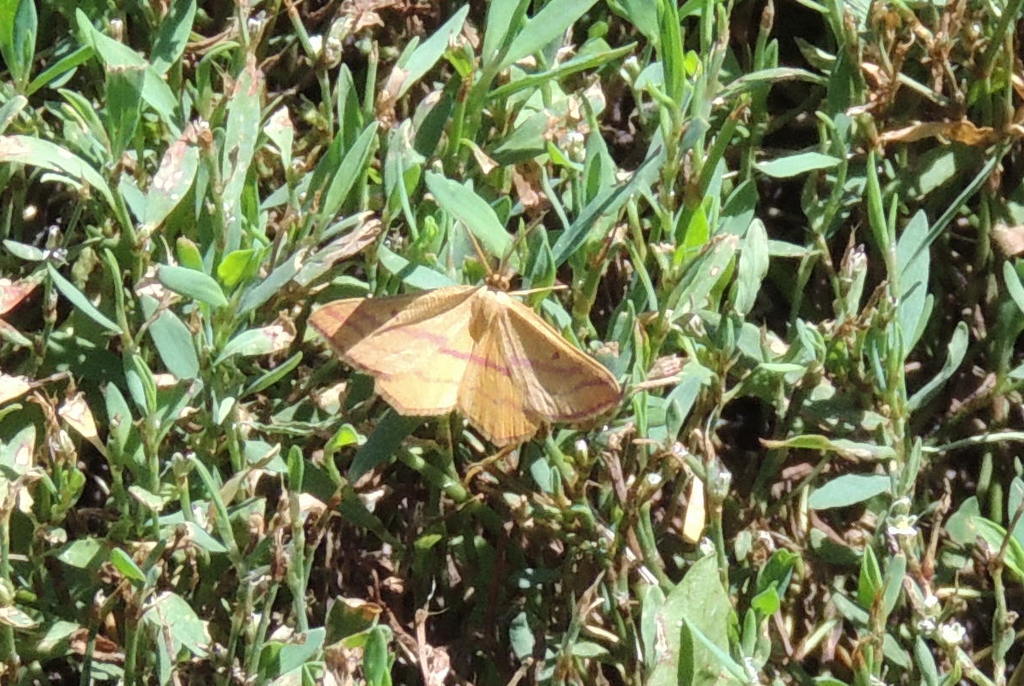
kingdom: Animalia
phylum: Arthropoda
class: Insecta
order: Lepidoptera
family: Geometridae
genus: Haematopis
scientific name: Haematopis grataria
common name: Chickweed geometer
